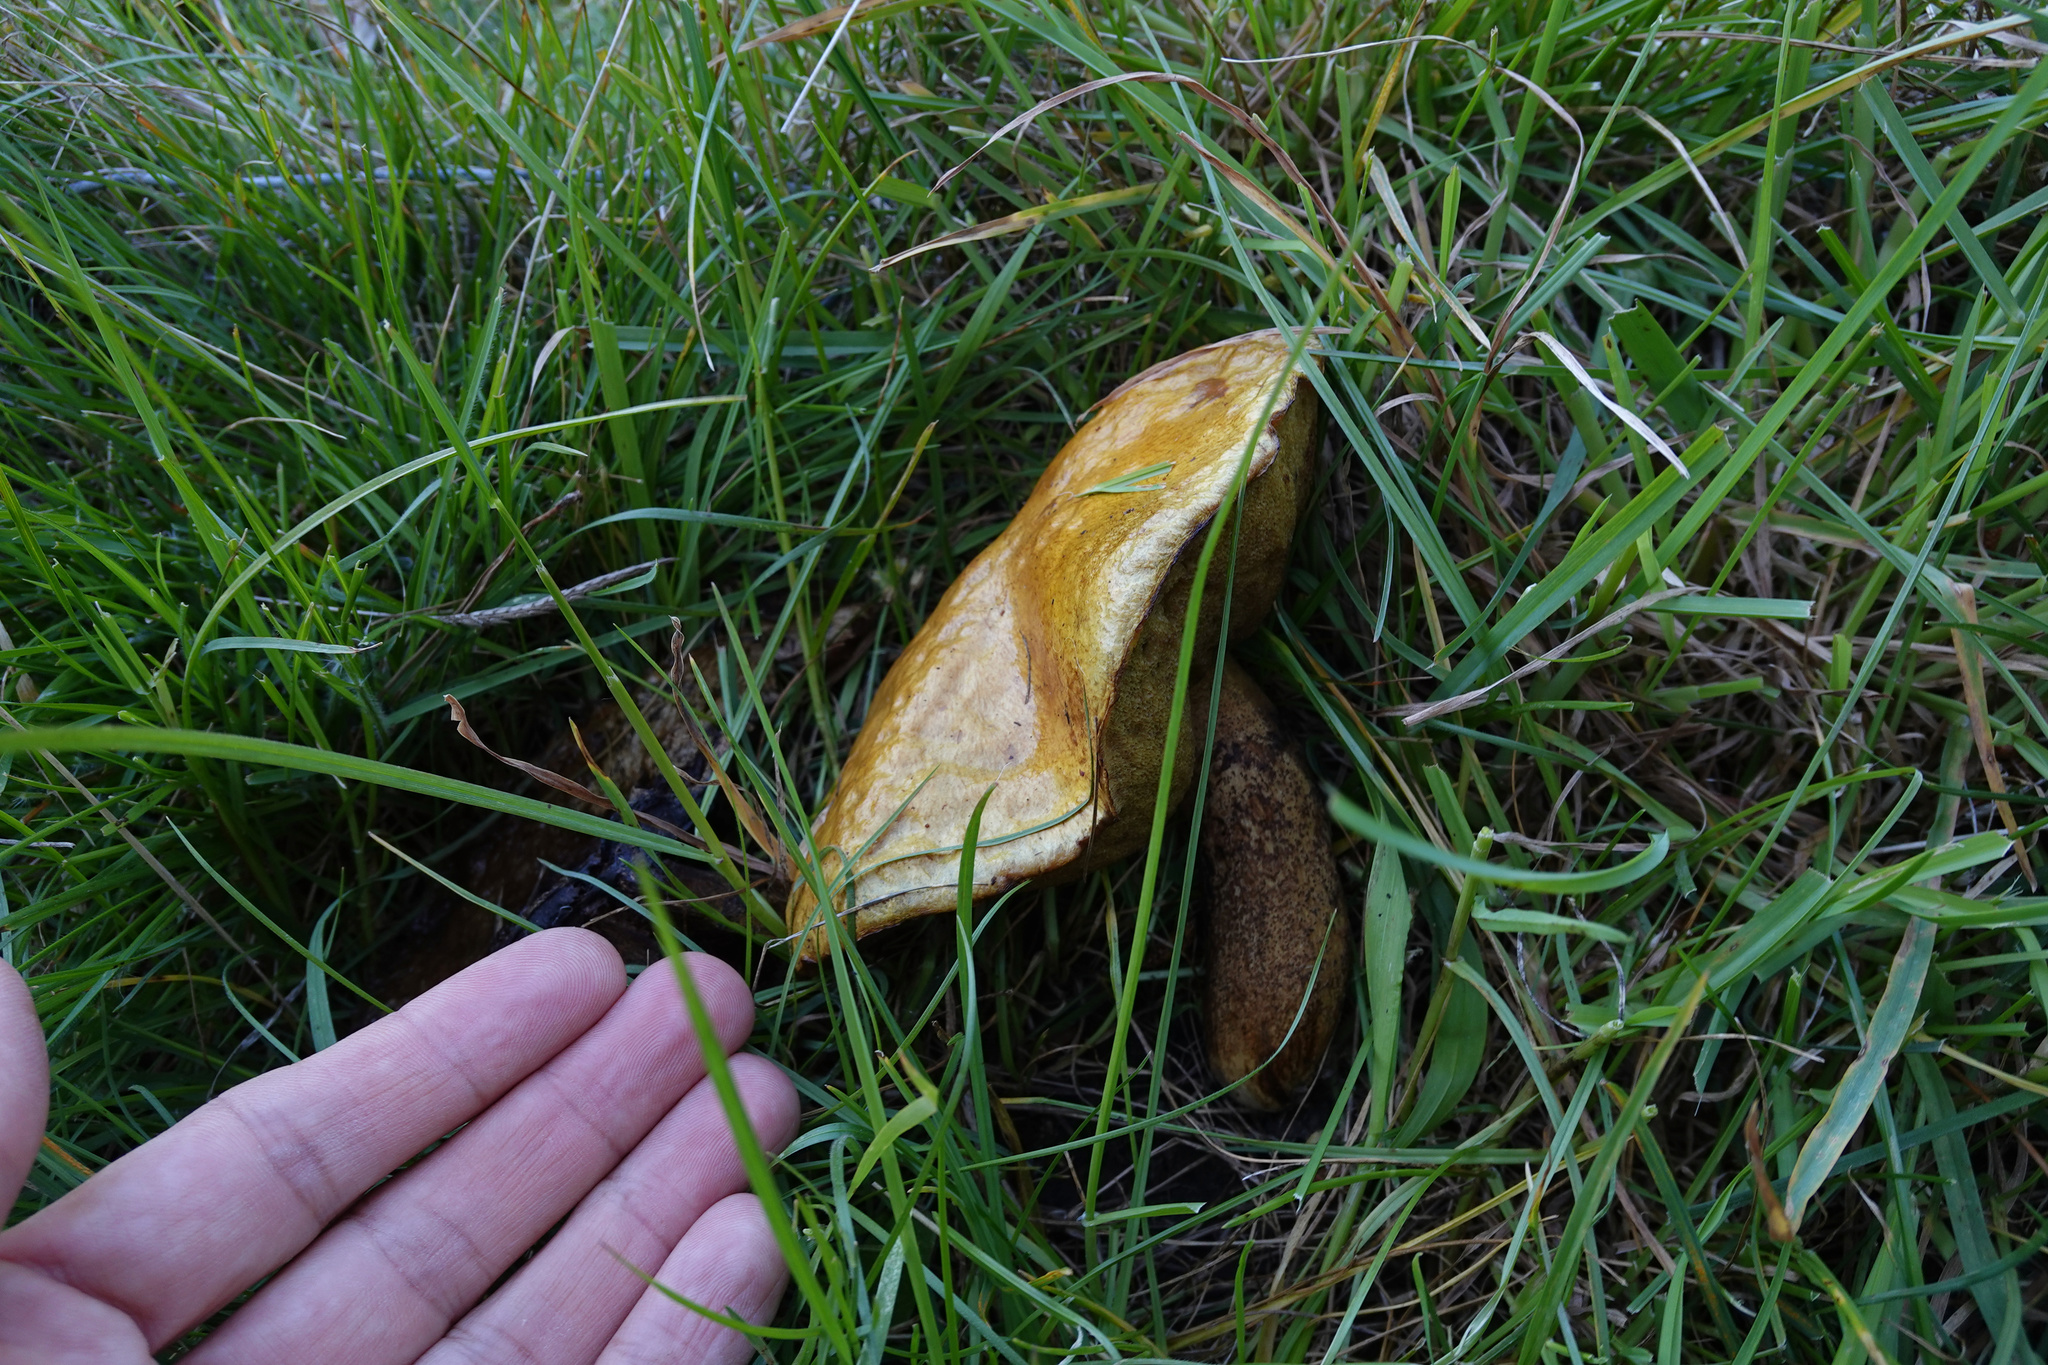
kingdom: Fungi
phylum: Basidiomycota
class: Agaricomycetes
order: Boletales
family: Suillaceae
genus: Suillus
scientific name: Suillus luteus
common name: Slippery jack
